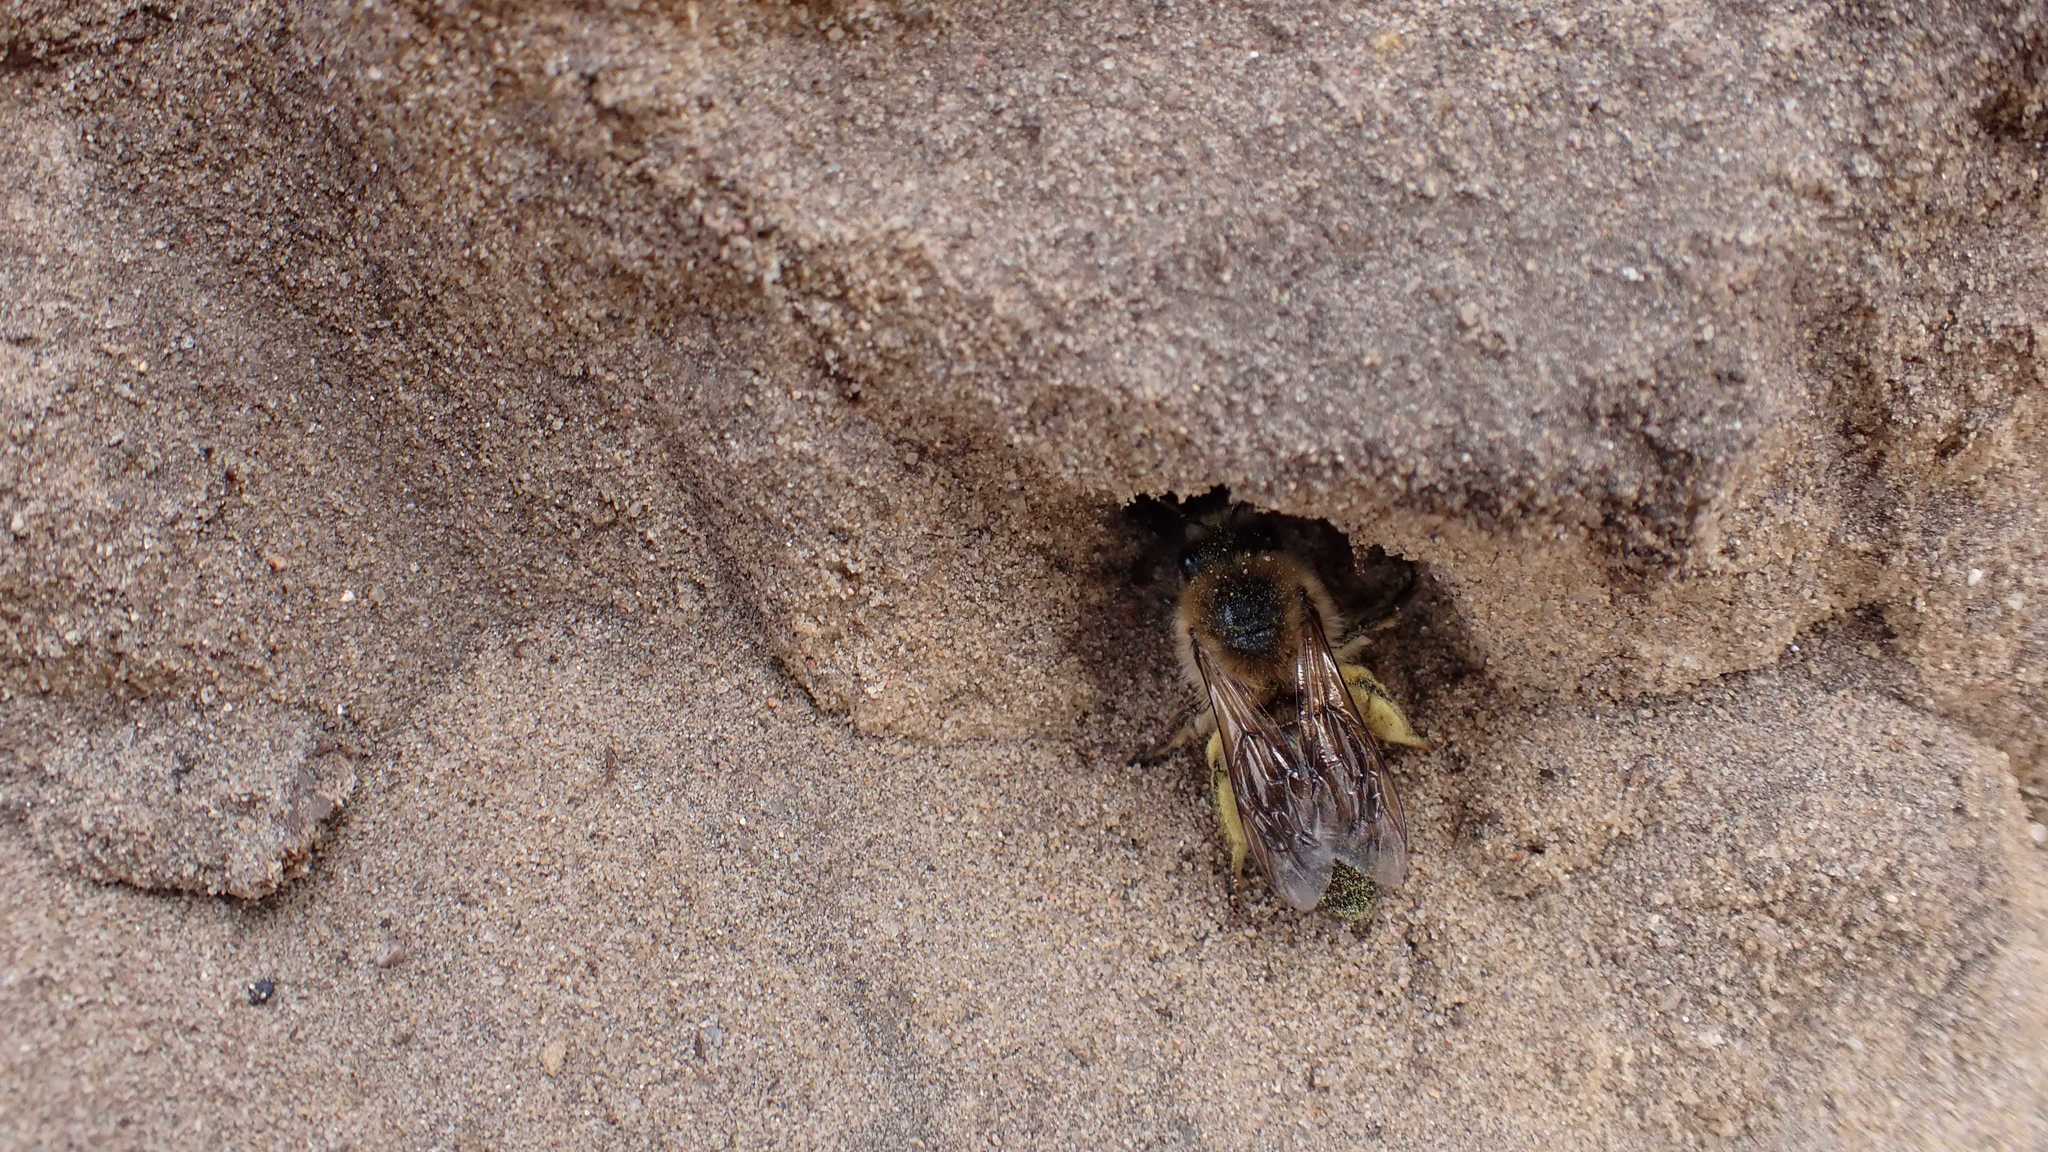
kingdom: Animalia
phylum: Arthropoda
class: Insecta
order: Hymenoptera
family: Colletidae
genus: Colletes
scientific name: Colletes cunicularius
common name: Early colletes
